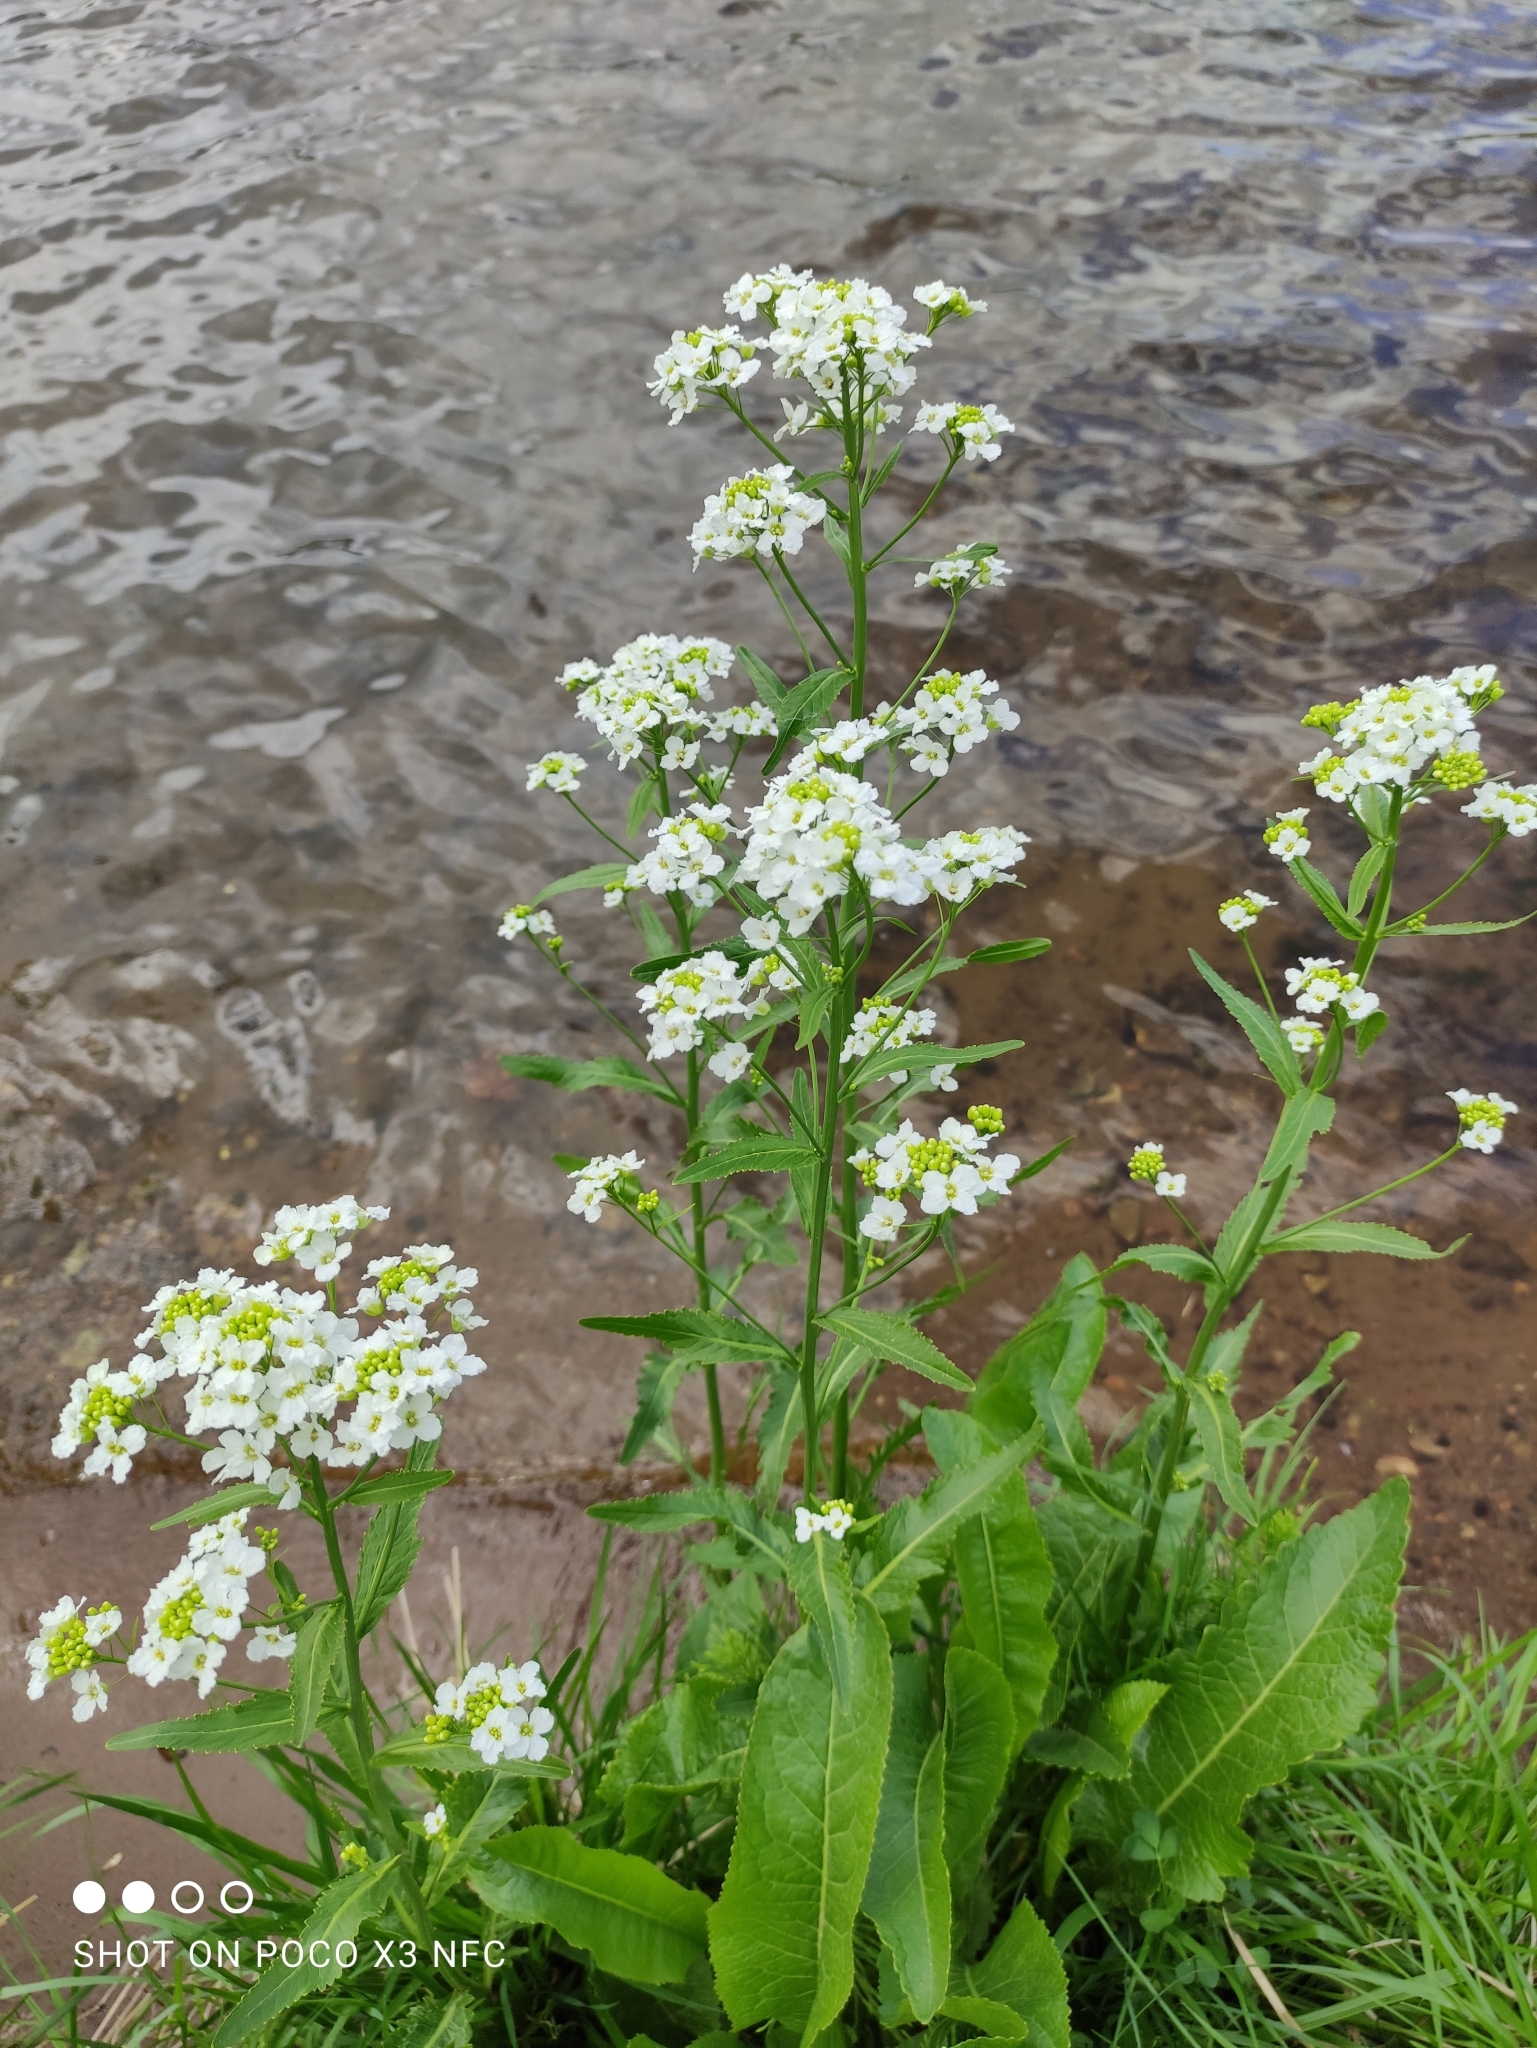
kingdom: Plantae
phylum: Tracheophyta
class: Magnoliopsida
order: Brassicales
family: Brassicaceae
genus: Armoracia
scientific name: Armoracia rusticana
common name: Horseradish
